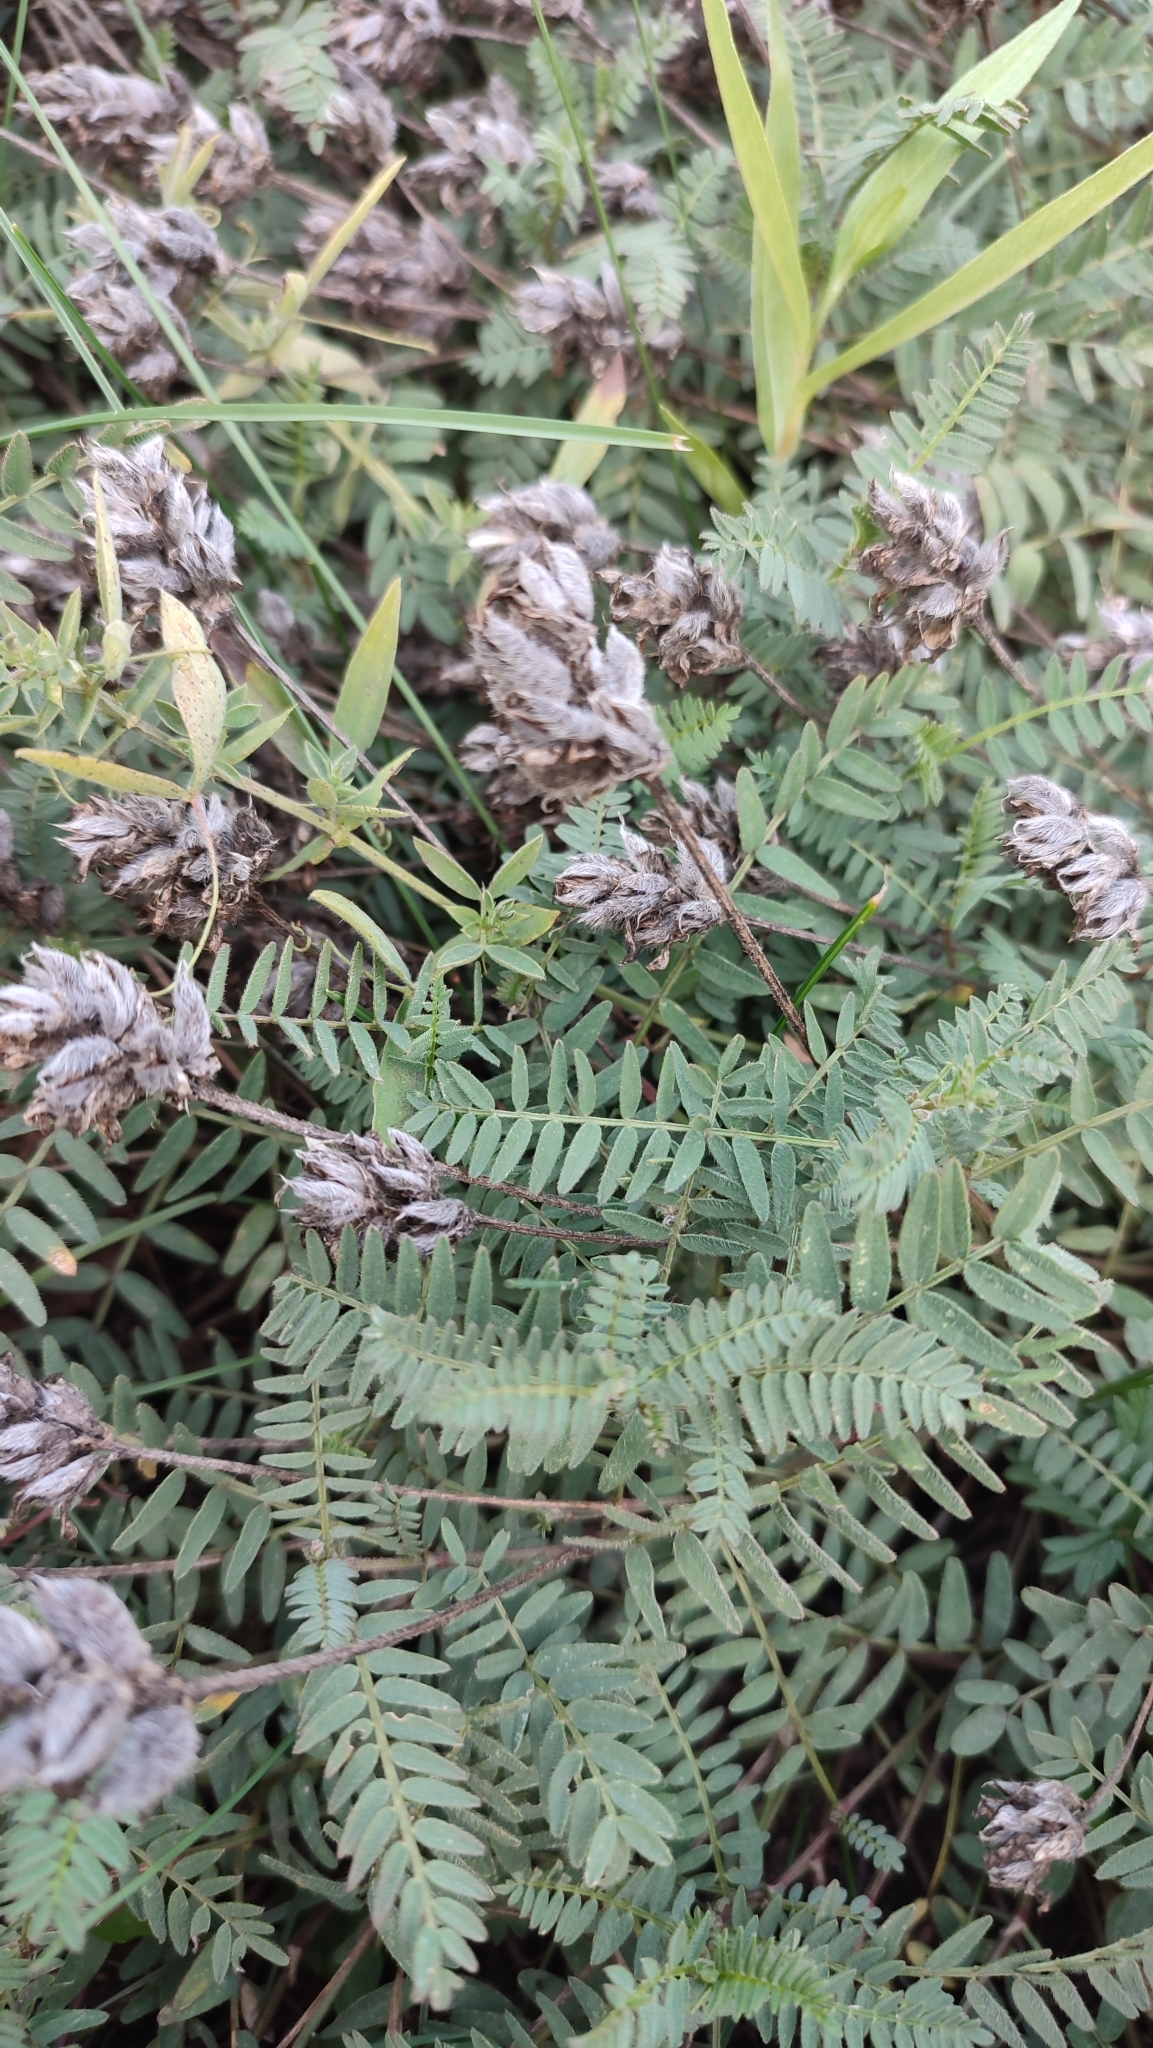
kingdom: Plantae
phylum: Tracheophyta
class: Magnoliopsida
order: Fabales
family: Fabaceae
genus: Astragalus
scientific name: Astragalus danicus
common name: Purple milk-vetch
